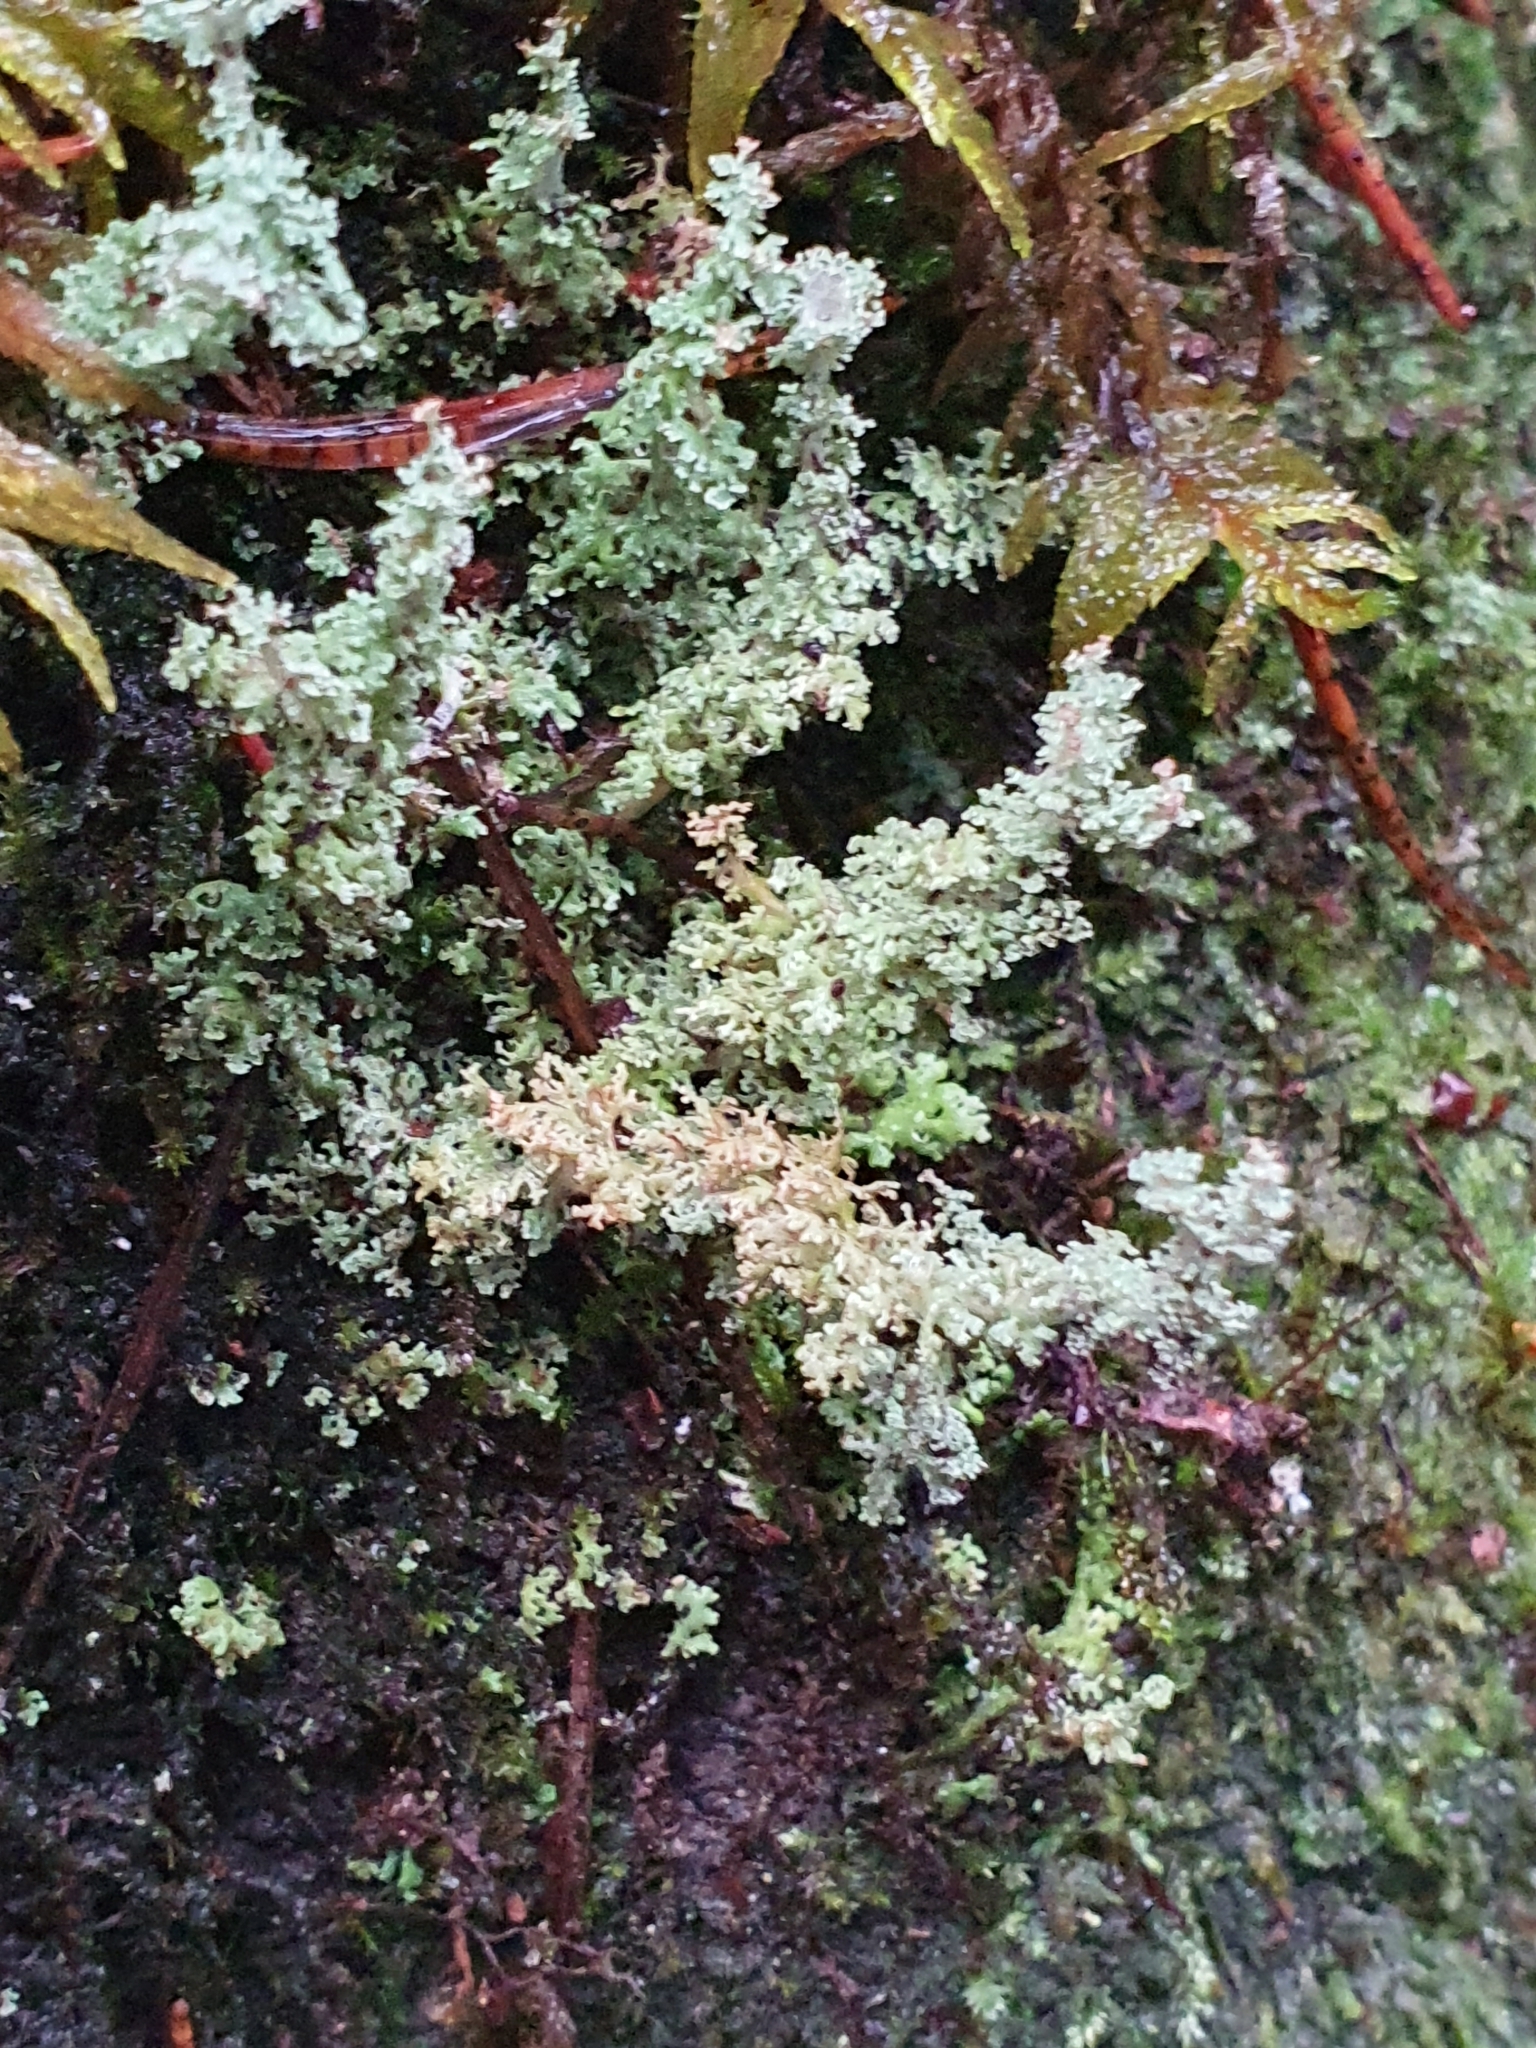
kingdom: Fungi
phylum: Ascomycota
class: Lecanoromycetes
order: Lecanorales
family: Cladoniaceae
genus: Cladonia
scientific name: Cladonia squamosa
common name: Dragon horn
